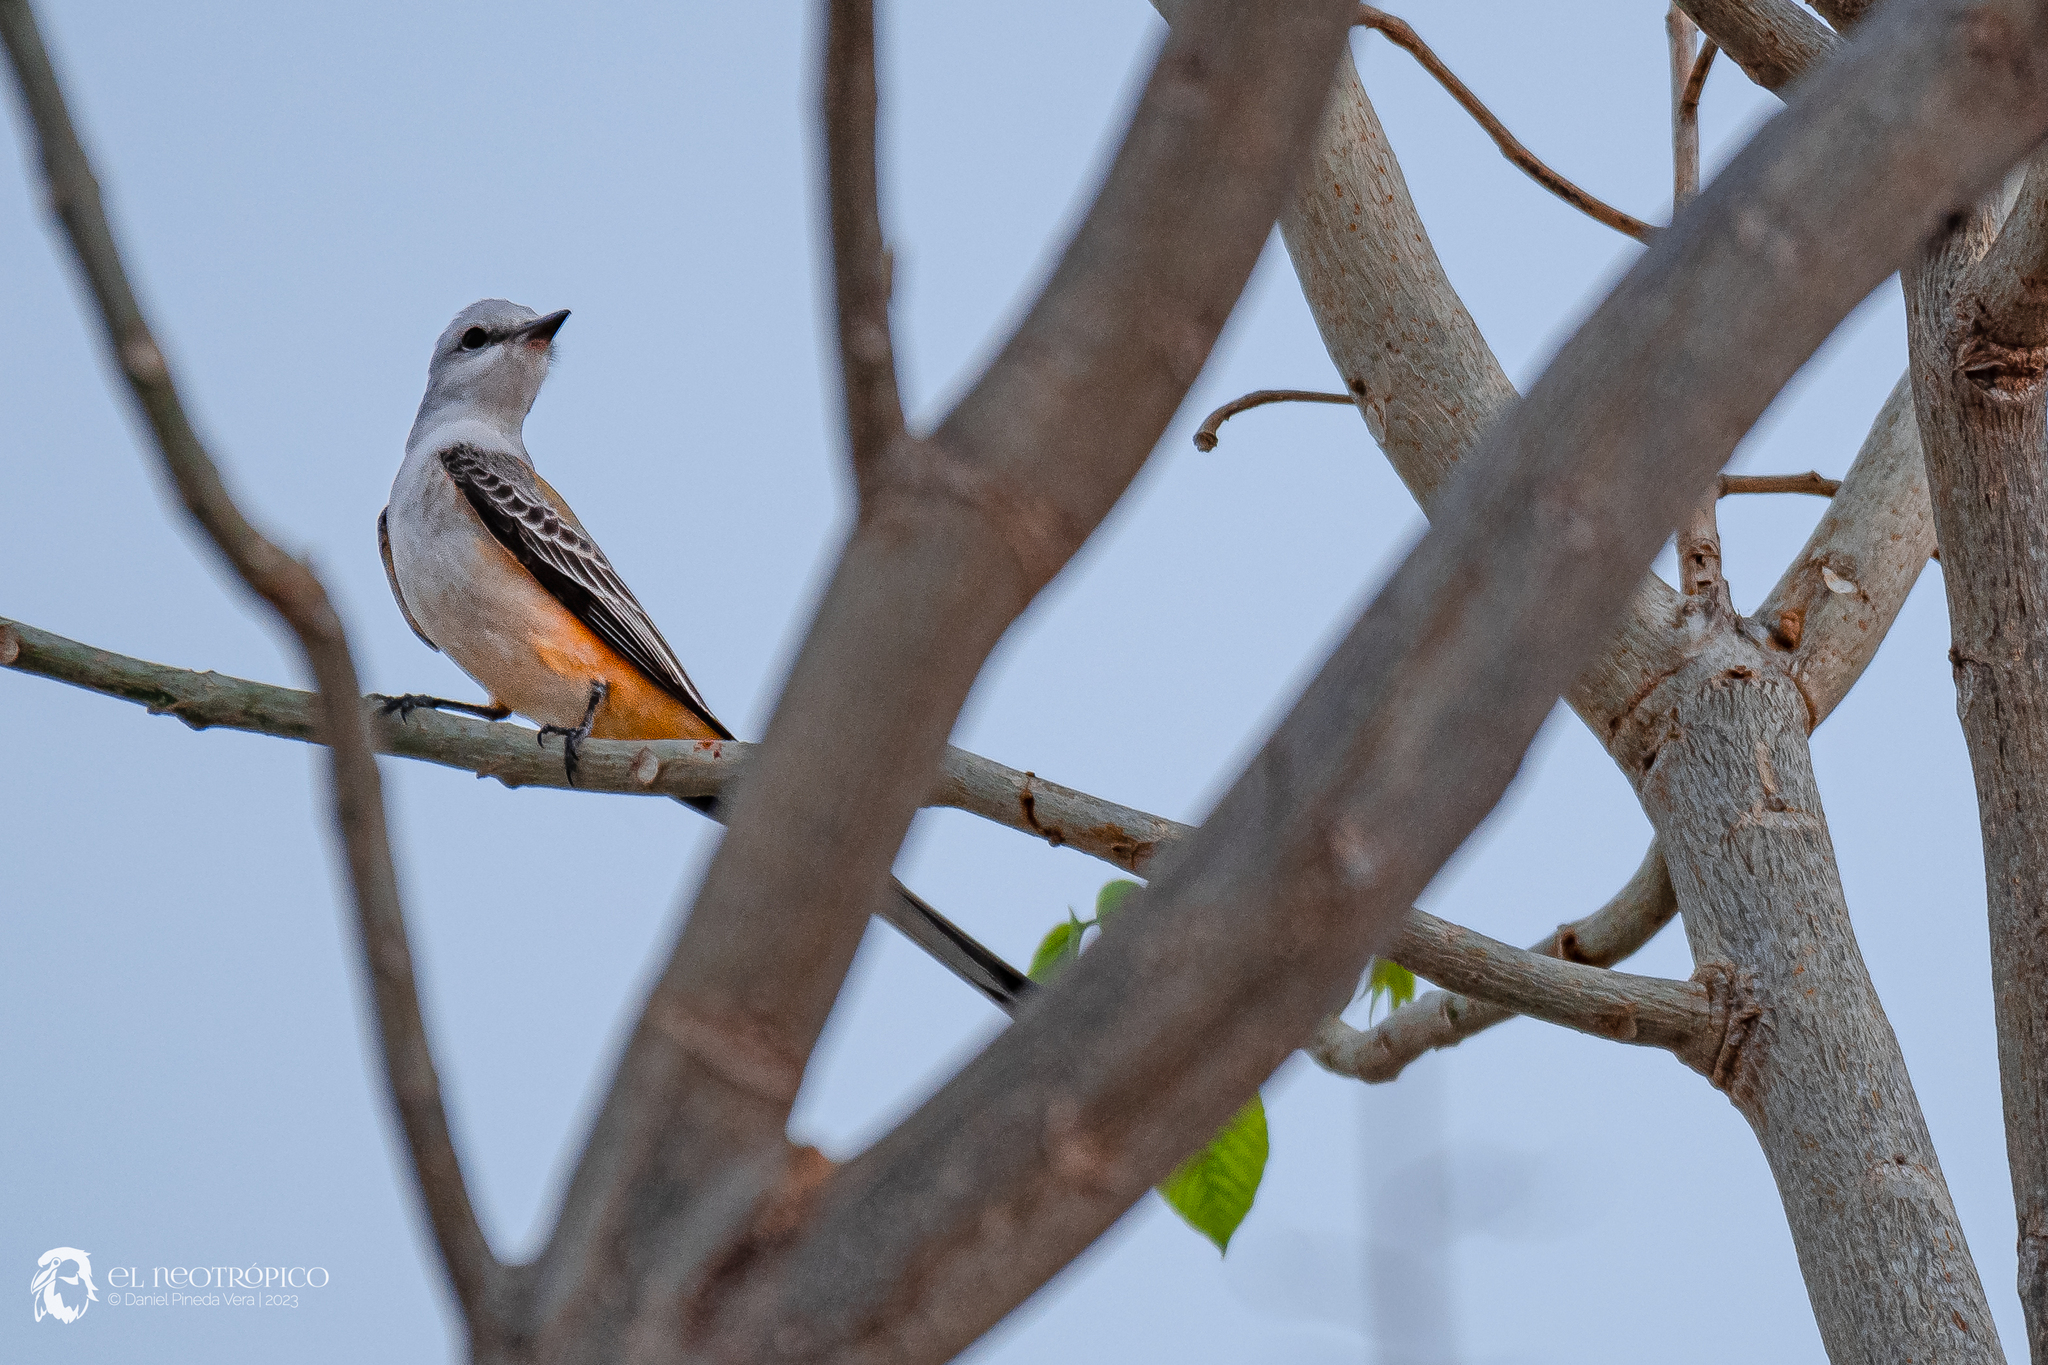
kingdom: Animalia
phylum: Chordata
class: Aves
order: Passeriformes
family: Tyrannidae
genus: Tyrannus
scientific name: Tyrannus forficatus
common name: Scissor-tailed flycatcher
